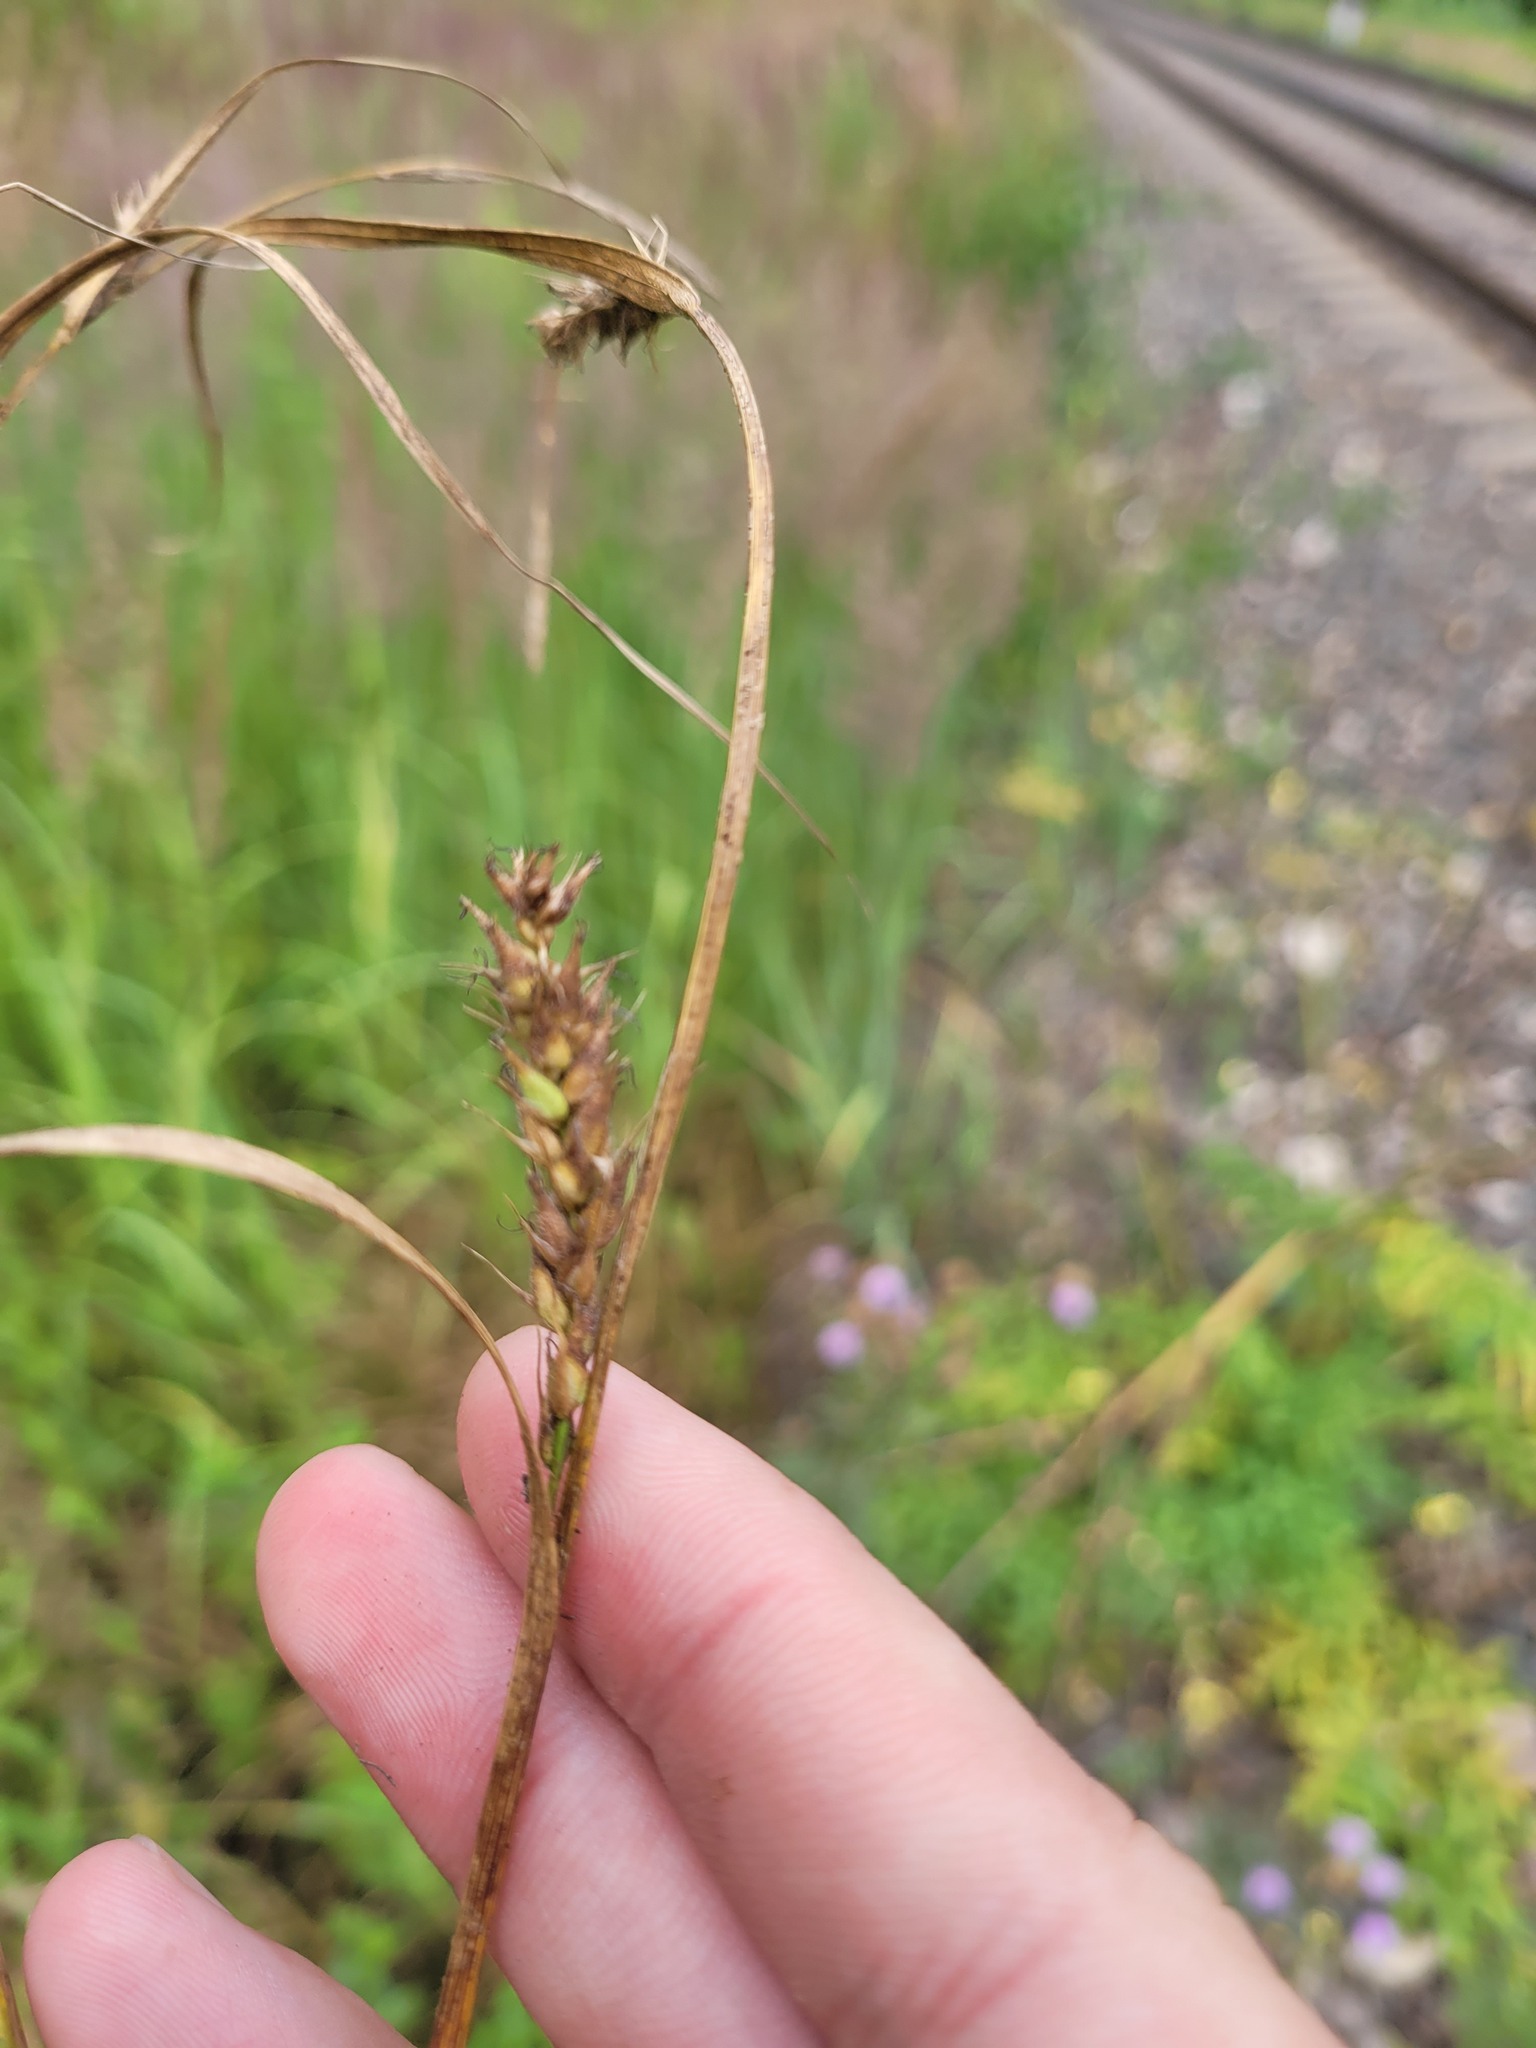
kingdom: Plantae
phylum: Tracheophyta
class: Liliopsida
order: Poales
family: Cyperaceae
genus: Carex
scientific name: Carex hirta
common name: Hairy sedge
